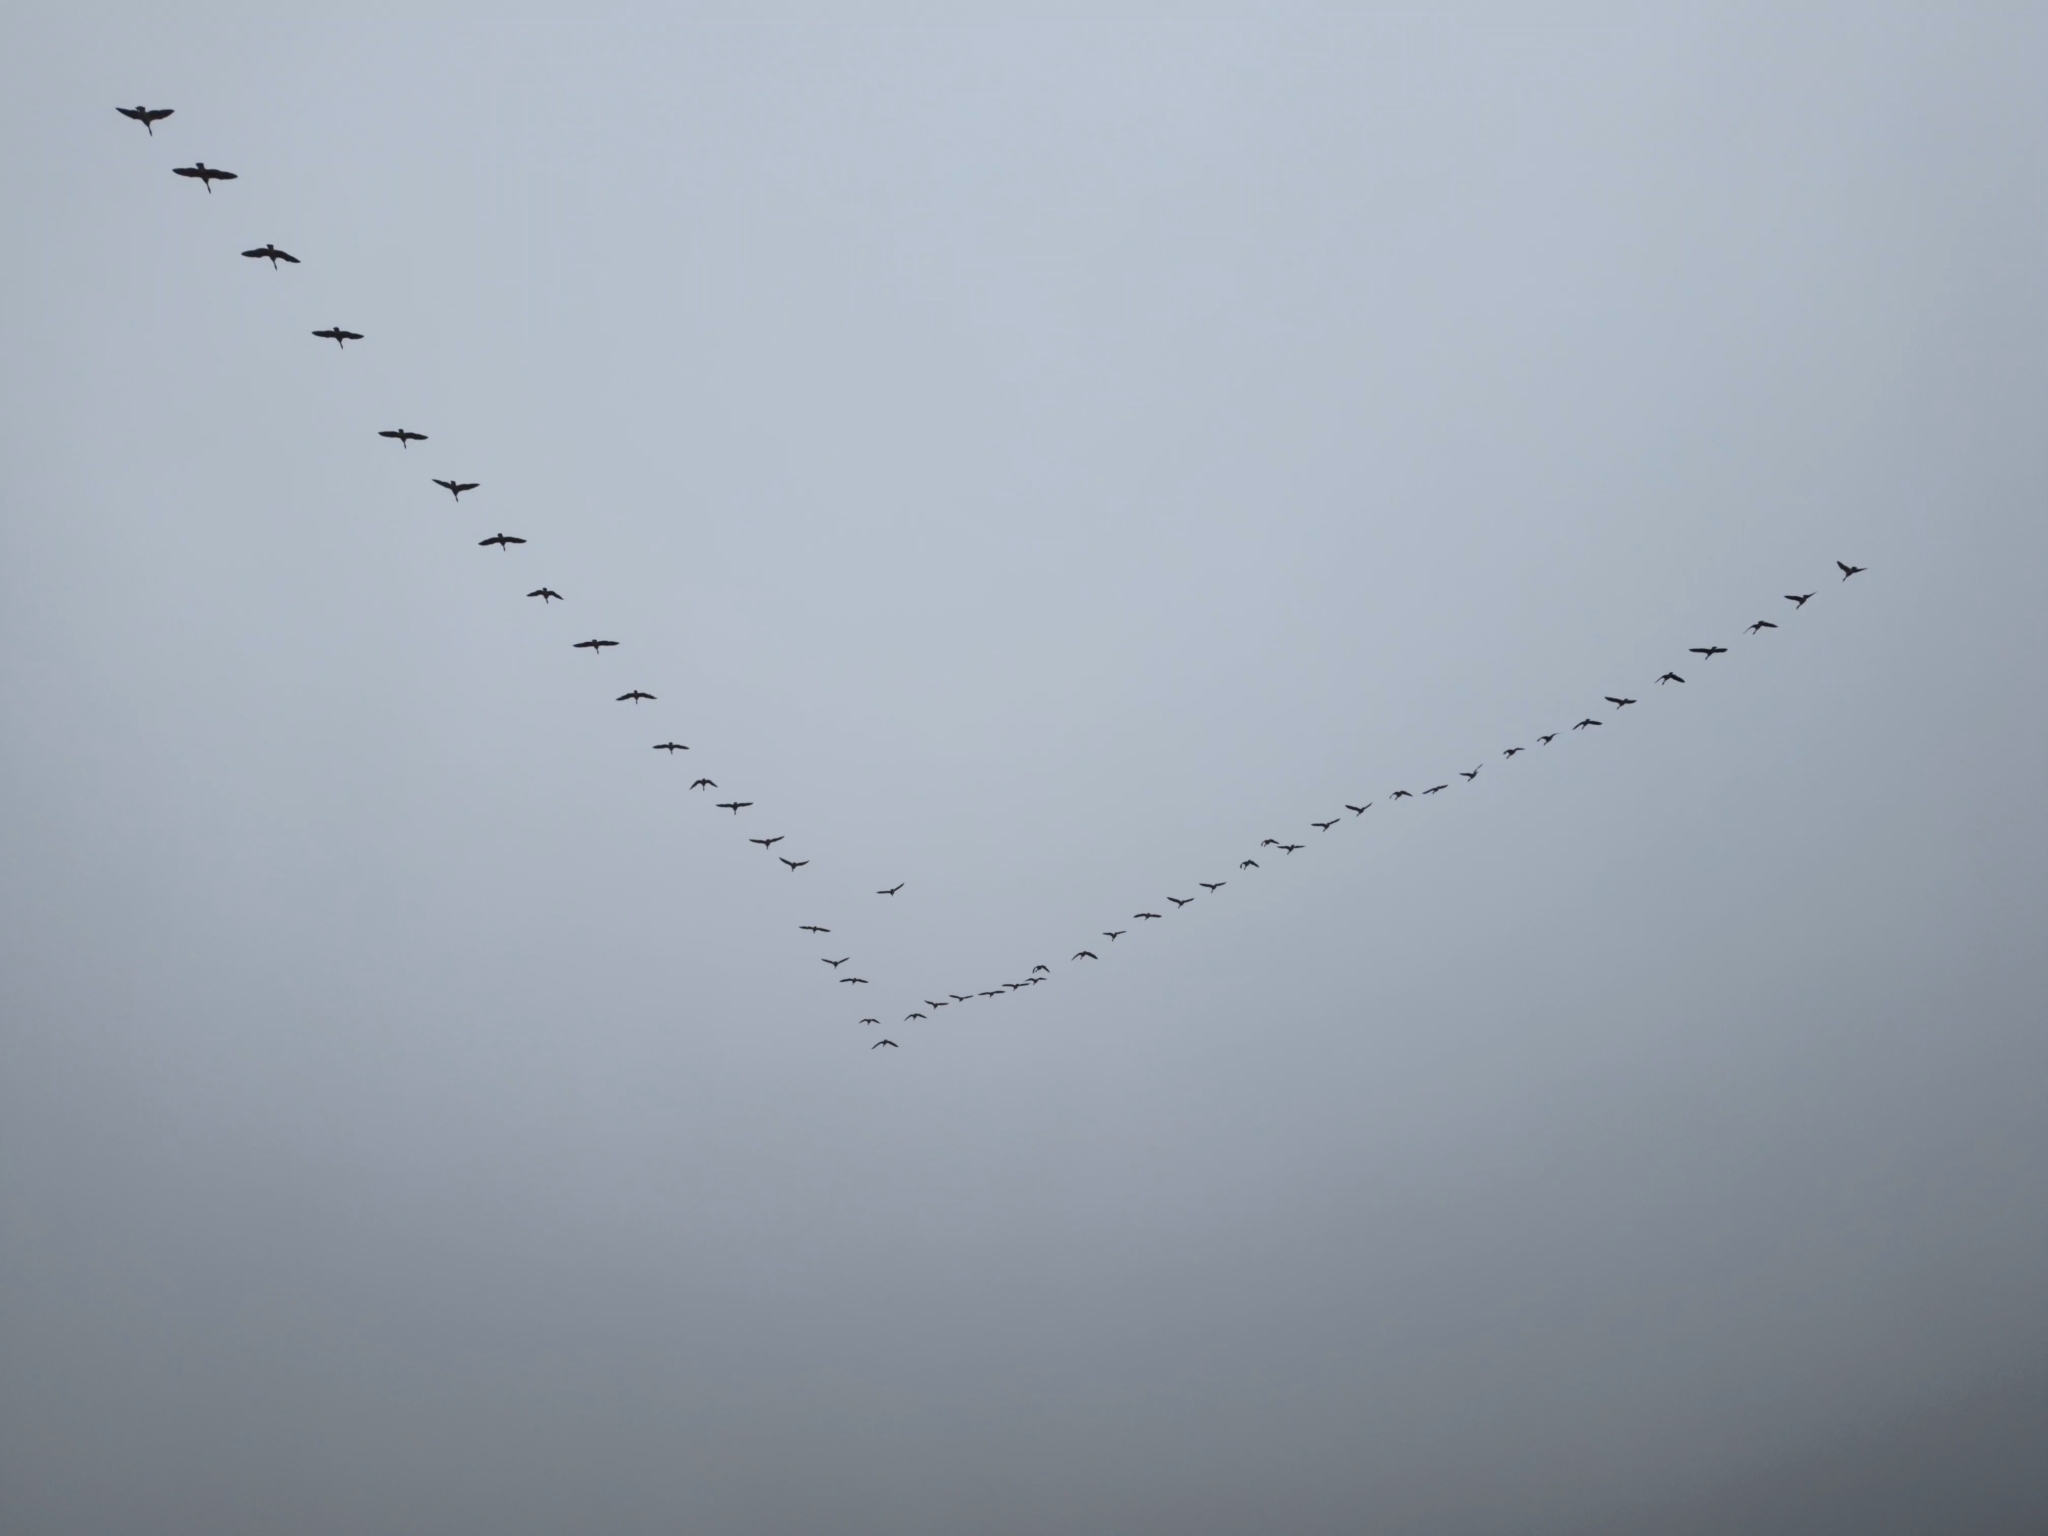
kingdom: Animalia
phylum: Chordata
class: Aves
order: Anseriformes
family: Anatidae
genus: Branta
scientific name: Branta canadensis
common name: Canada goose
